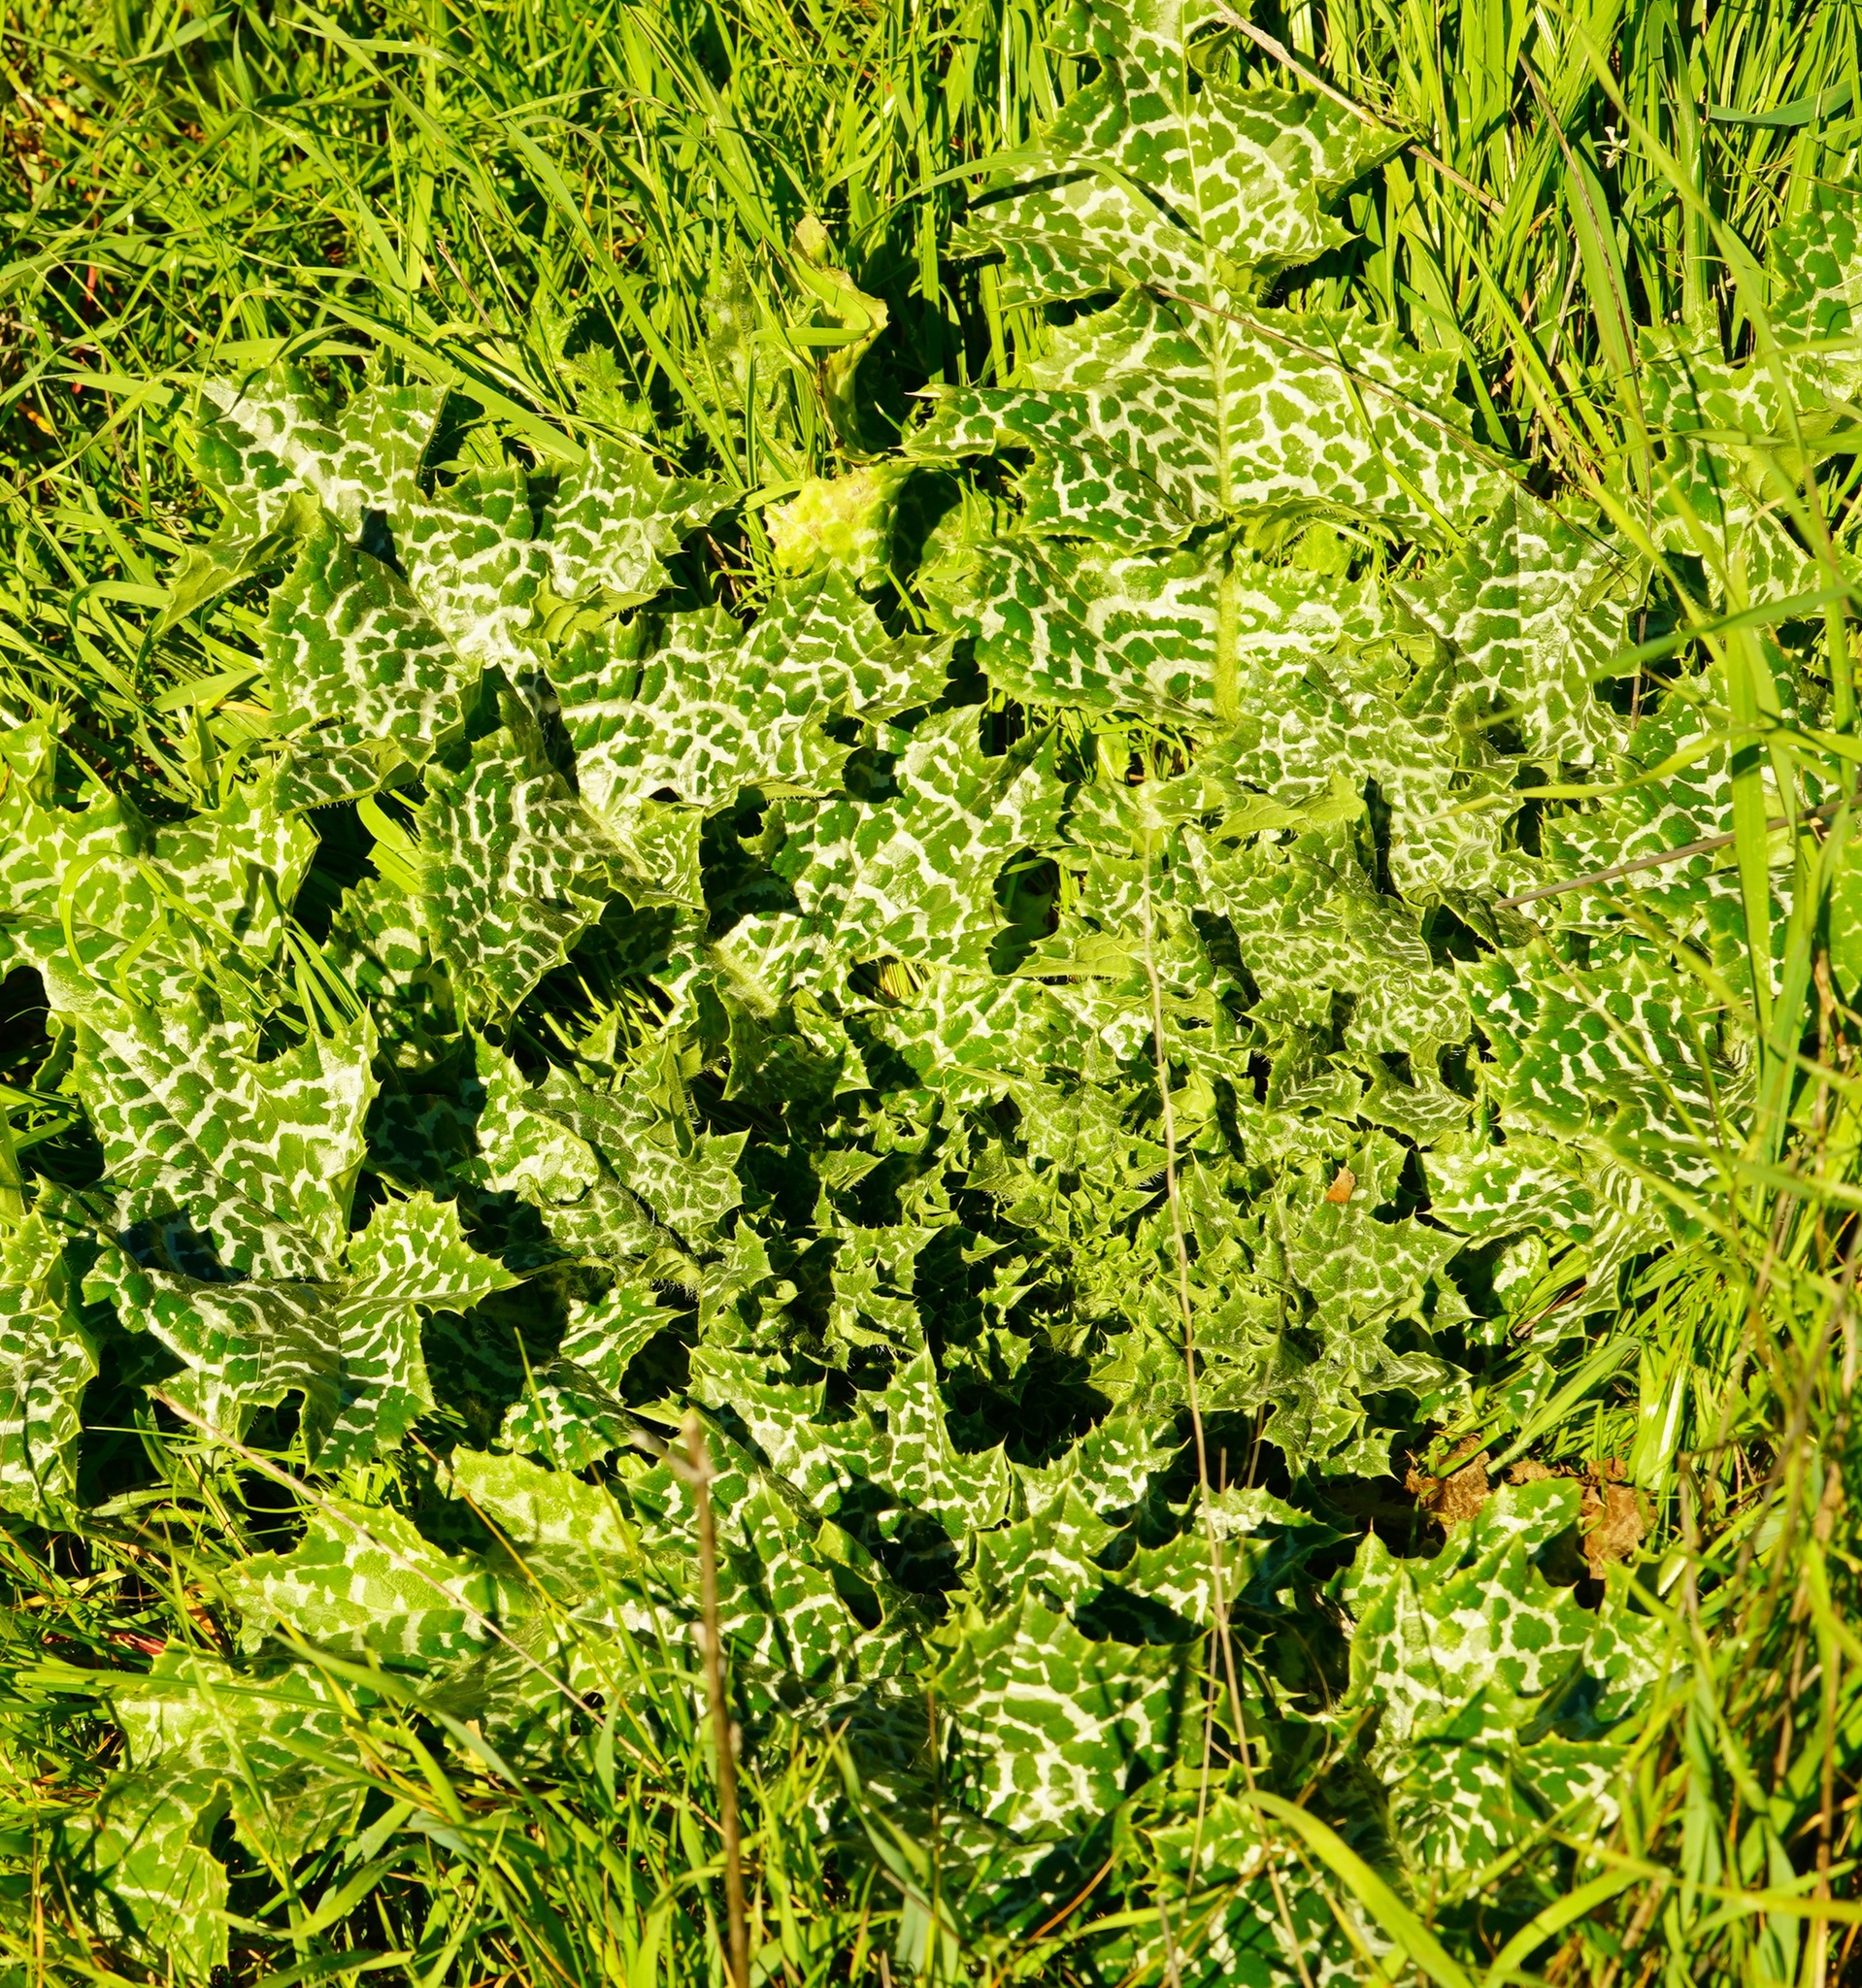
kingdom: Plantae
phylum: Tracheophyta
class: Magnoliopsida
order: Asterales
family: Asteraceae
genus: Silybum
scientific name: Silybum marianum
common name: Milk thistle
